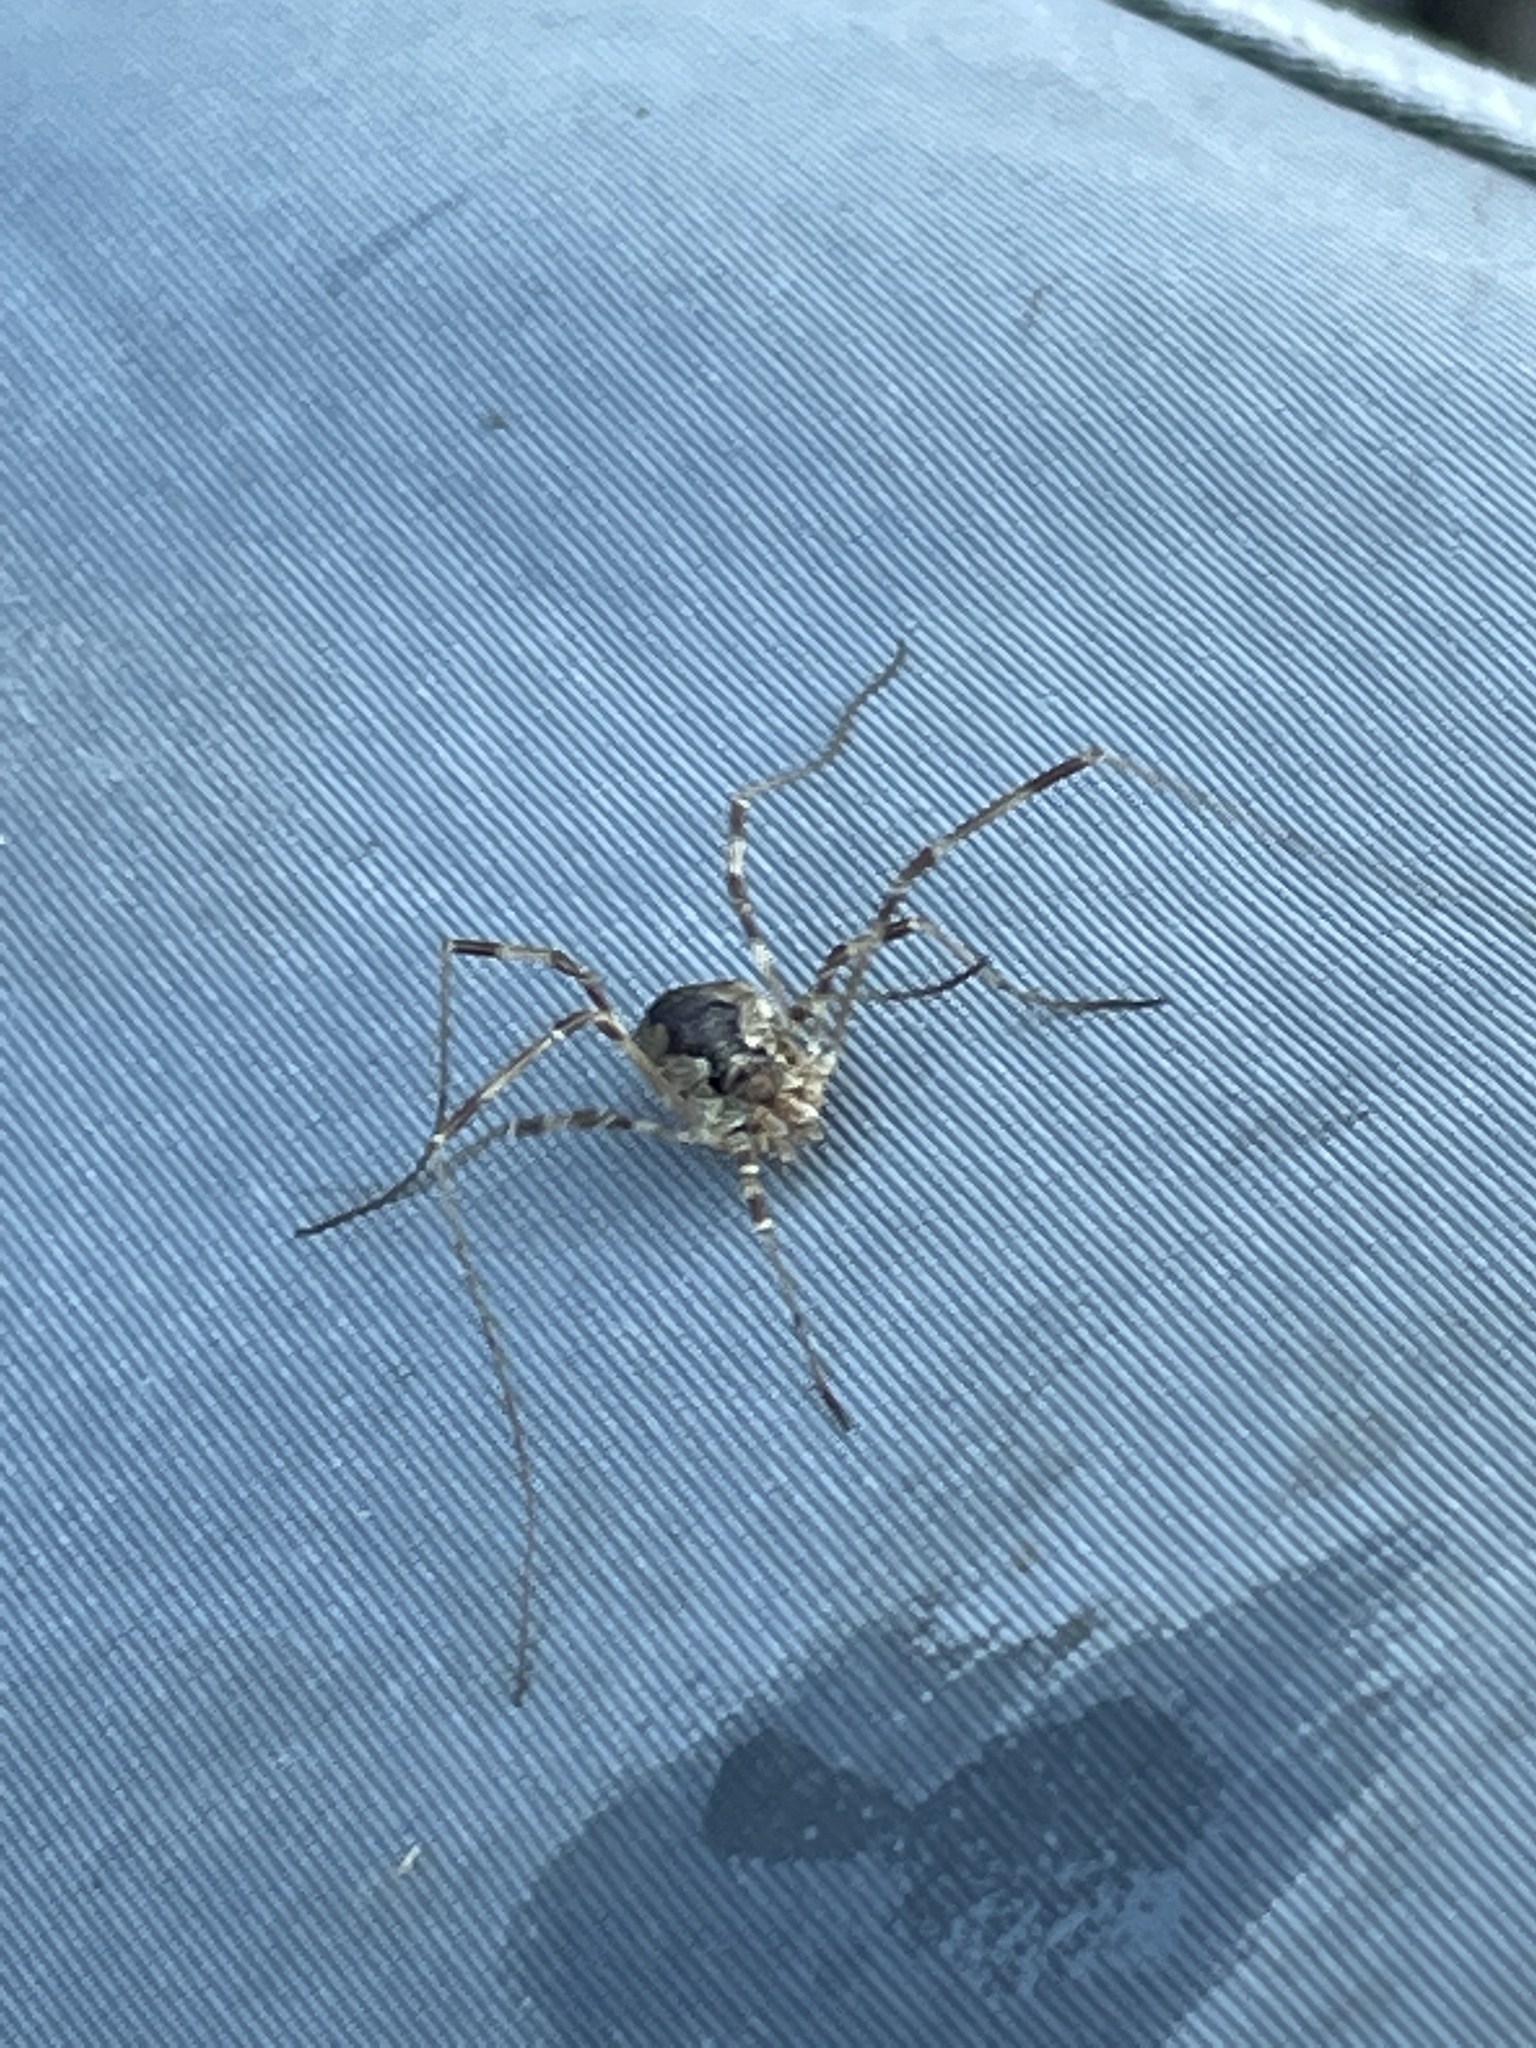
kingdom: Animalia
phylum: Arthropoda
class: Arachnida
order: Opiliones
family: Phalangiidae
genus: Odiellus
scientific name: Odiellus pictus
